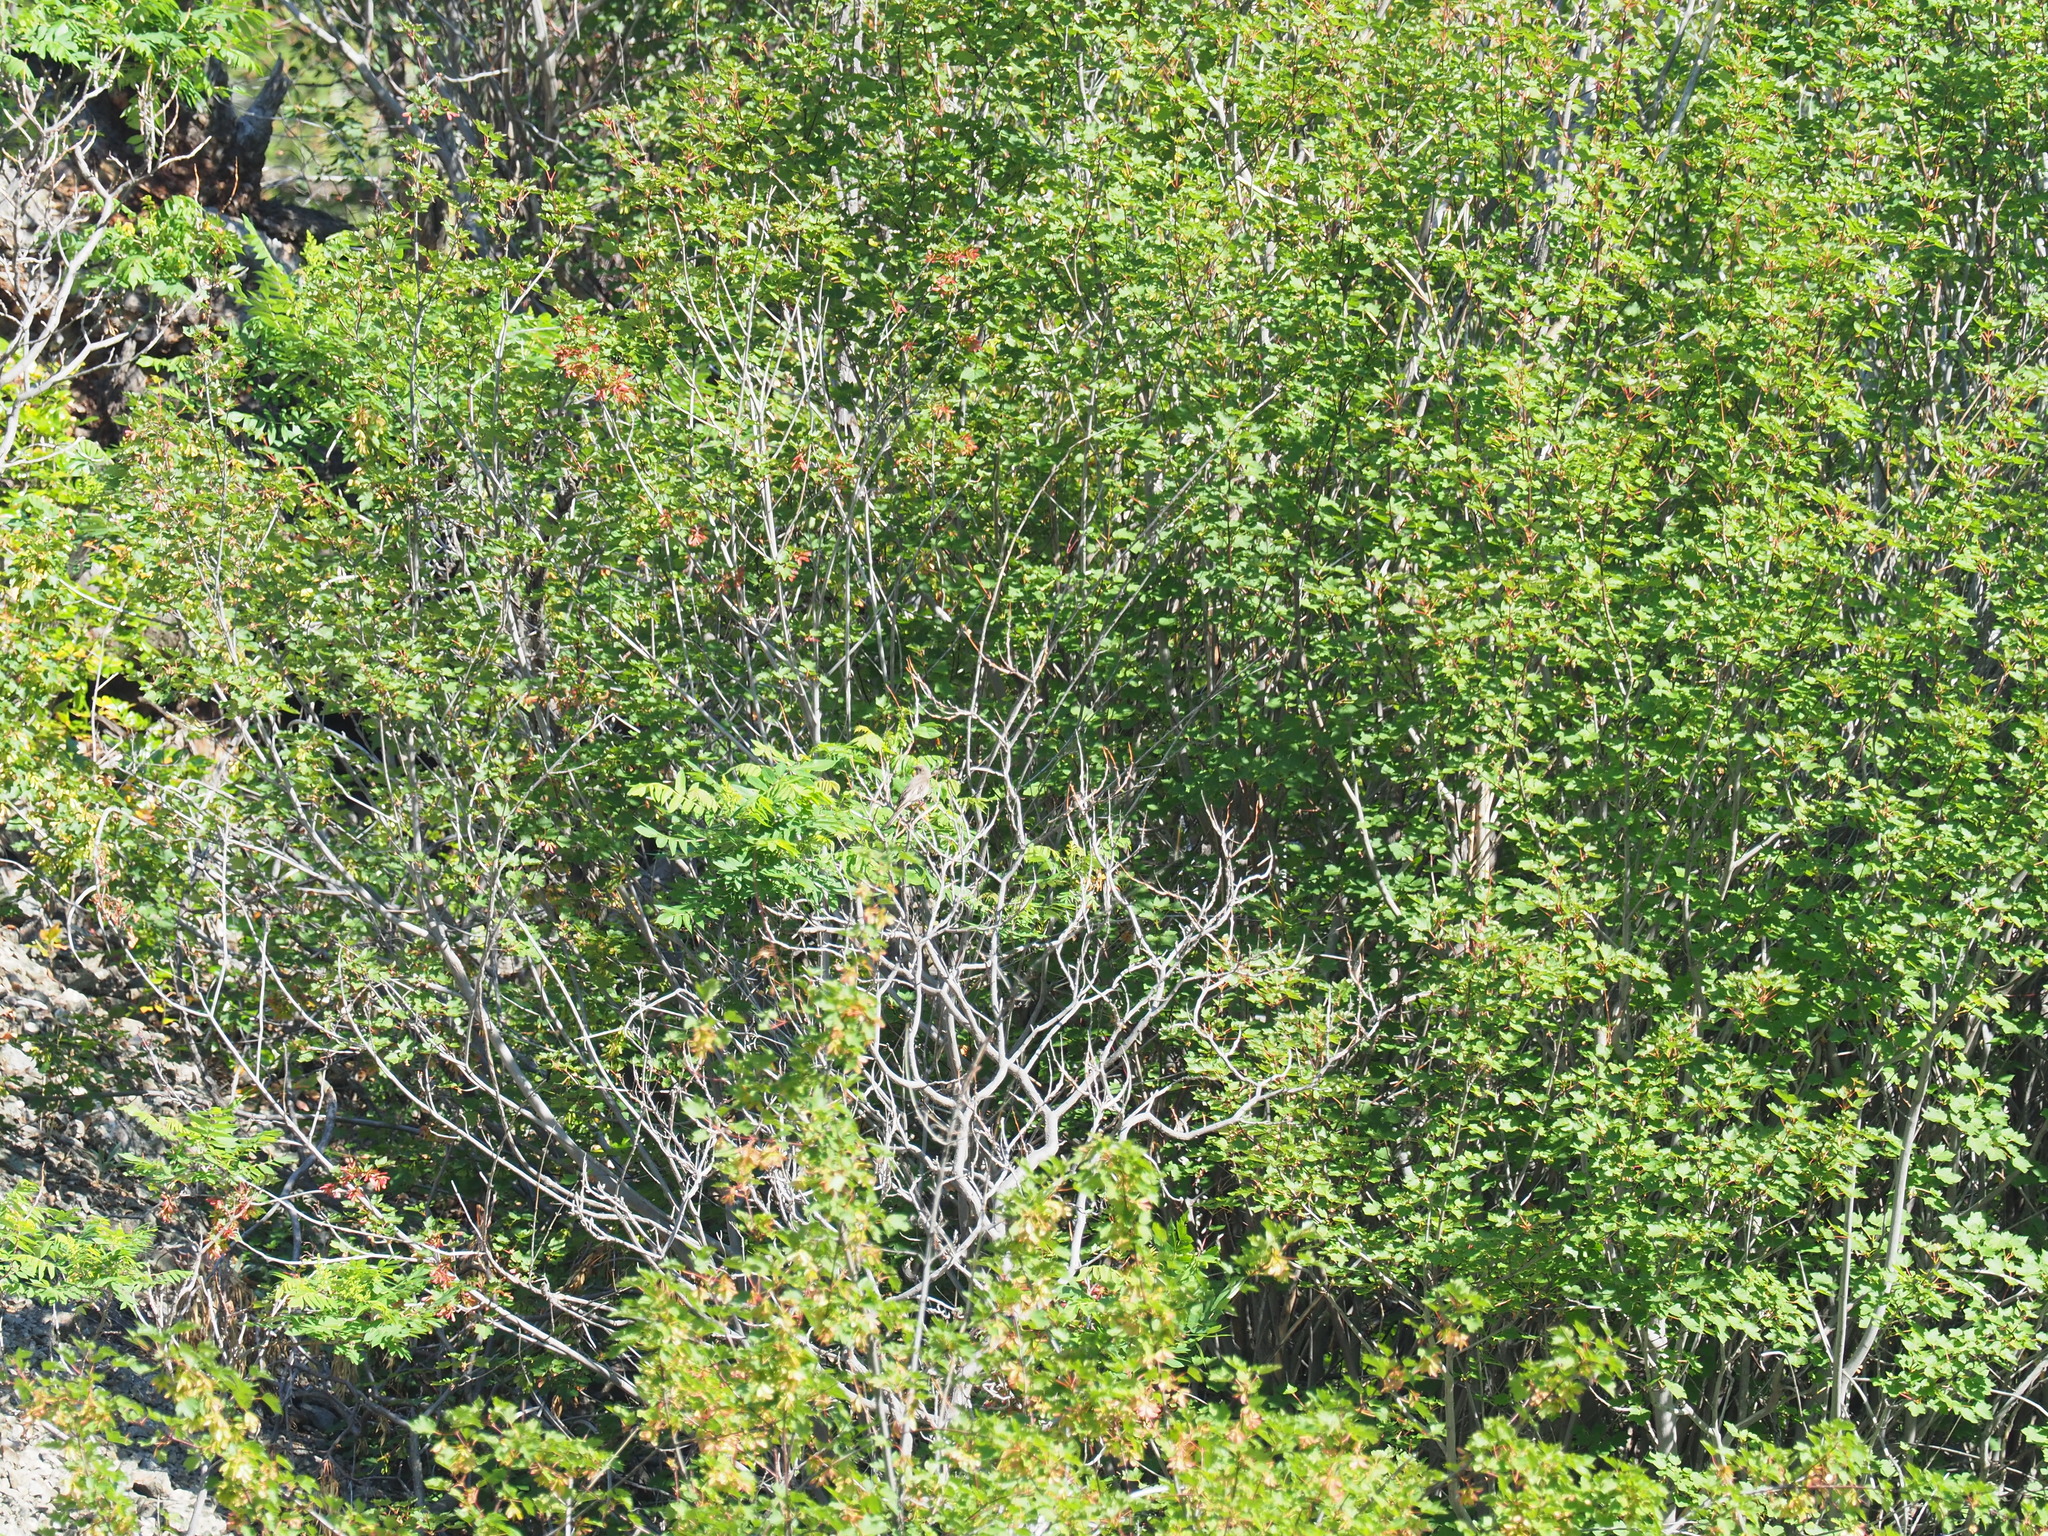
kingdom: Animalia
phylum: Chordata
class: Aves
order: Passeriformes
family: Turdidae
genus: Myadestes
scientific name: Myadestes townsendi
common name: Townsend's solitaire
